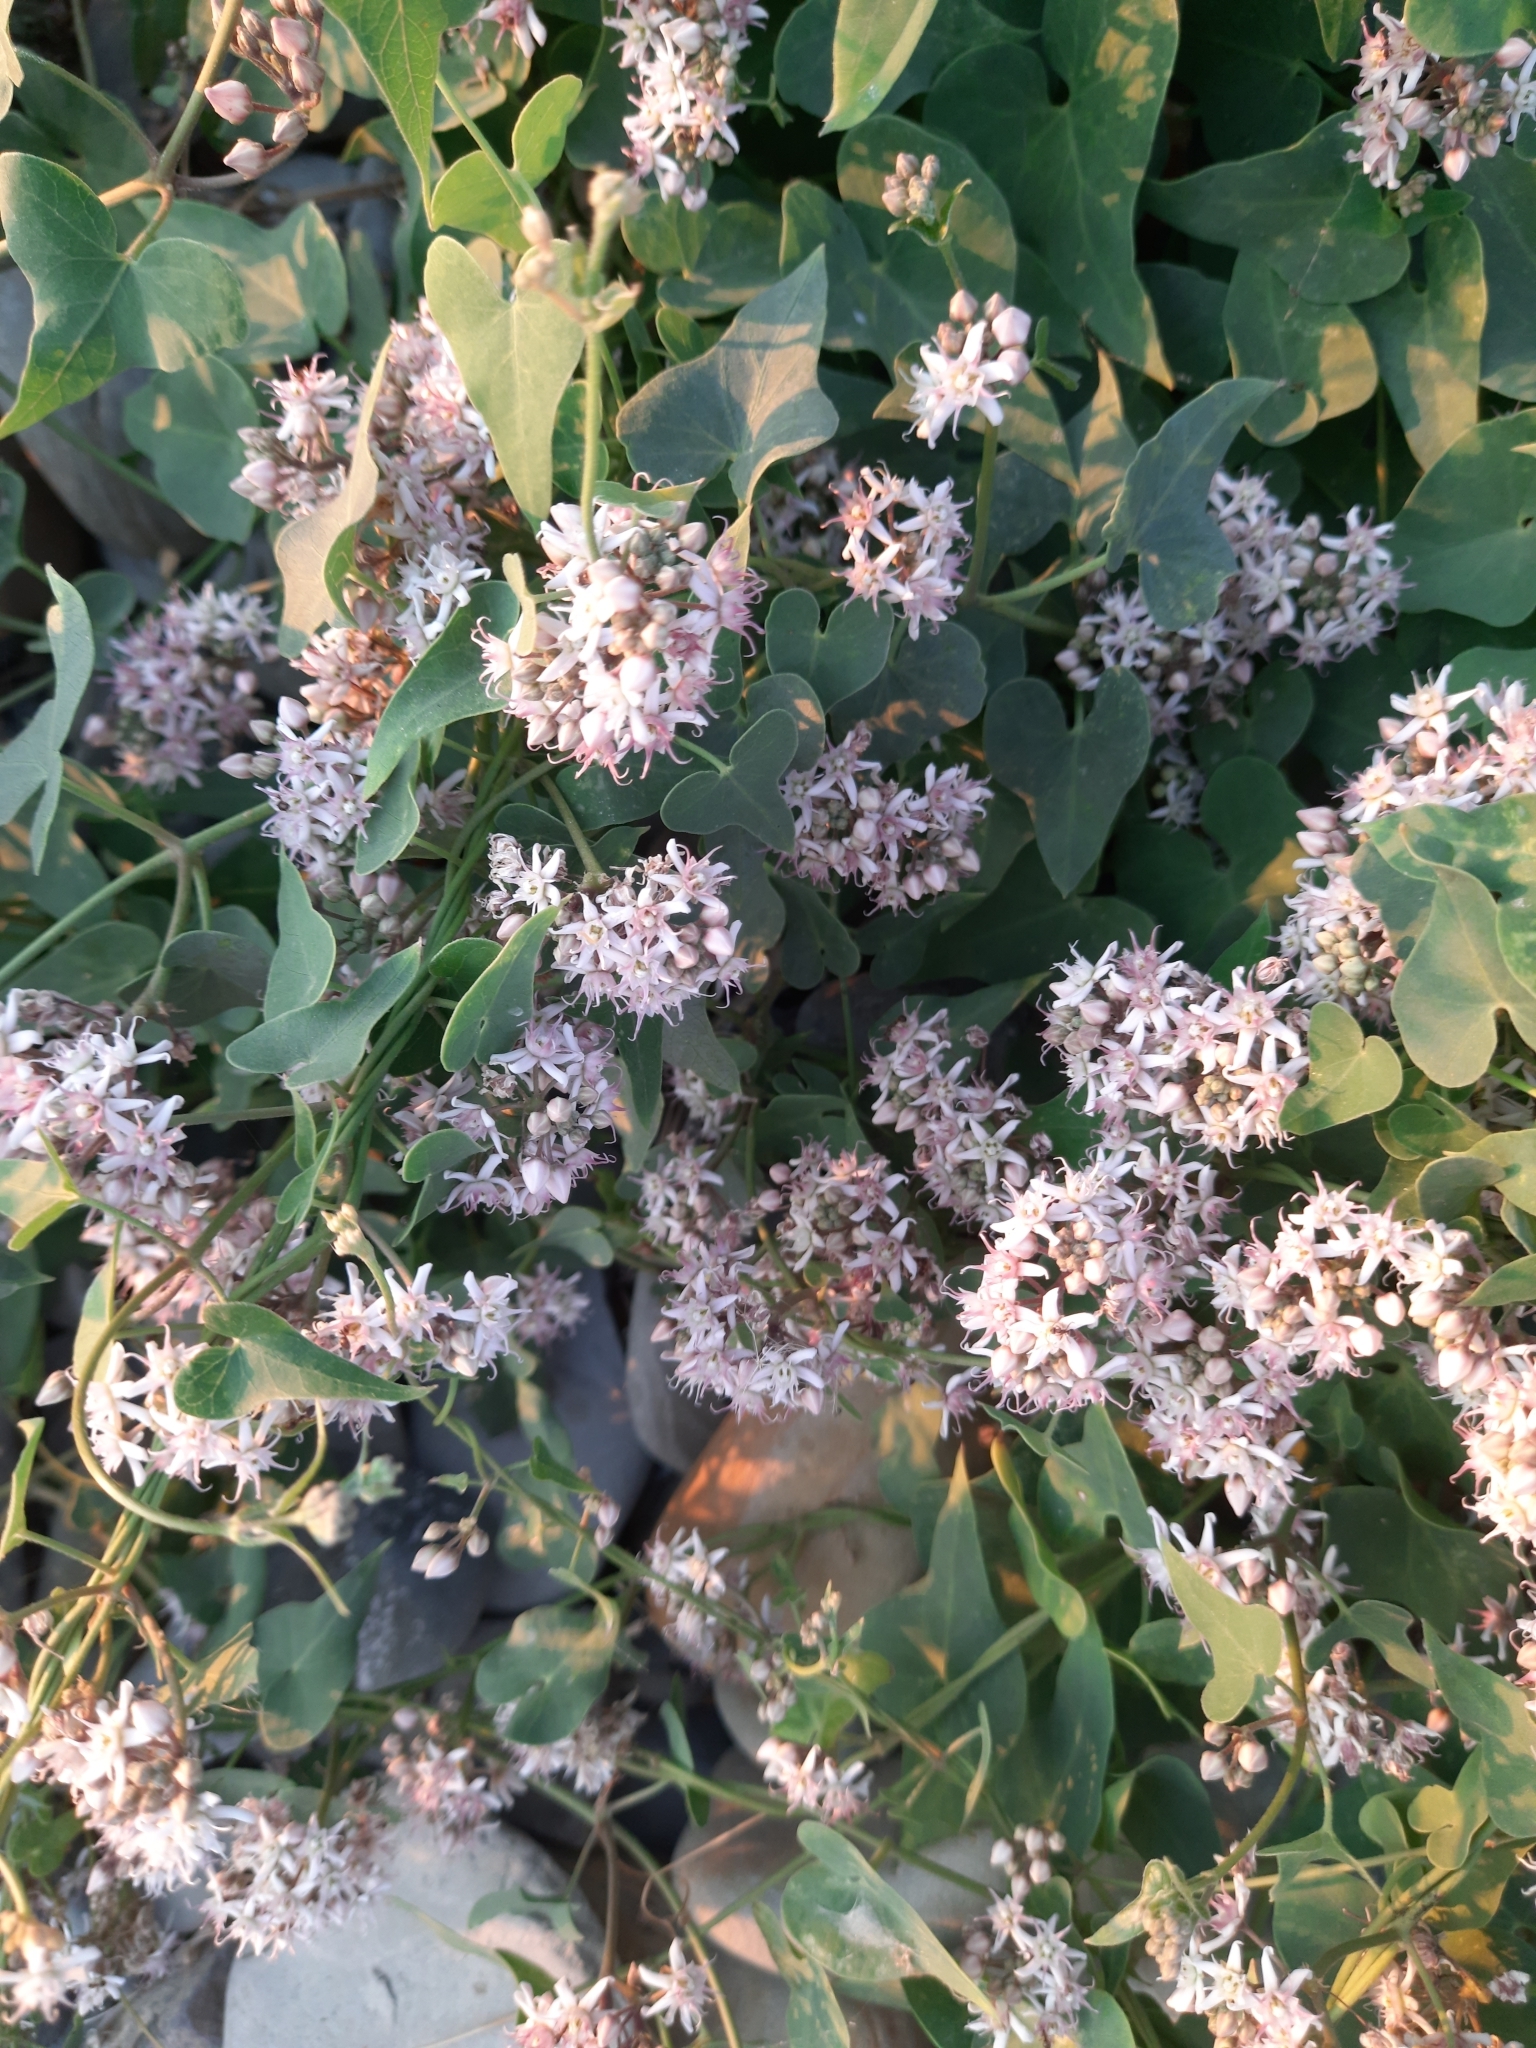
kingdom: Plantae
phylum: Tracheophyta
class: Magnoliopsida
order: Gentianales
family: Apocynaceae
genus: Cynanchum
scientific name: Cynanchum acutum
